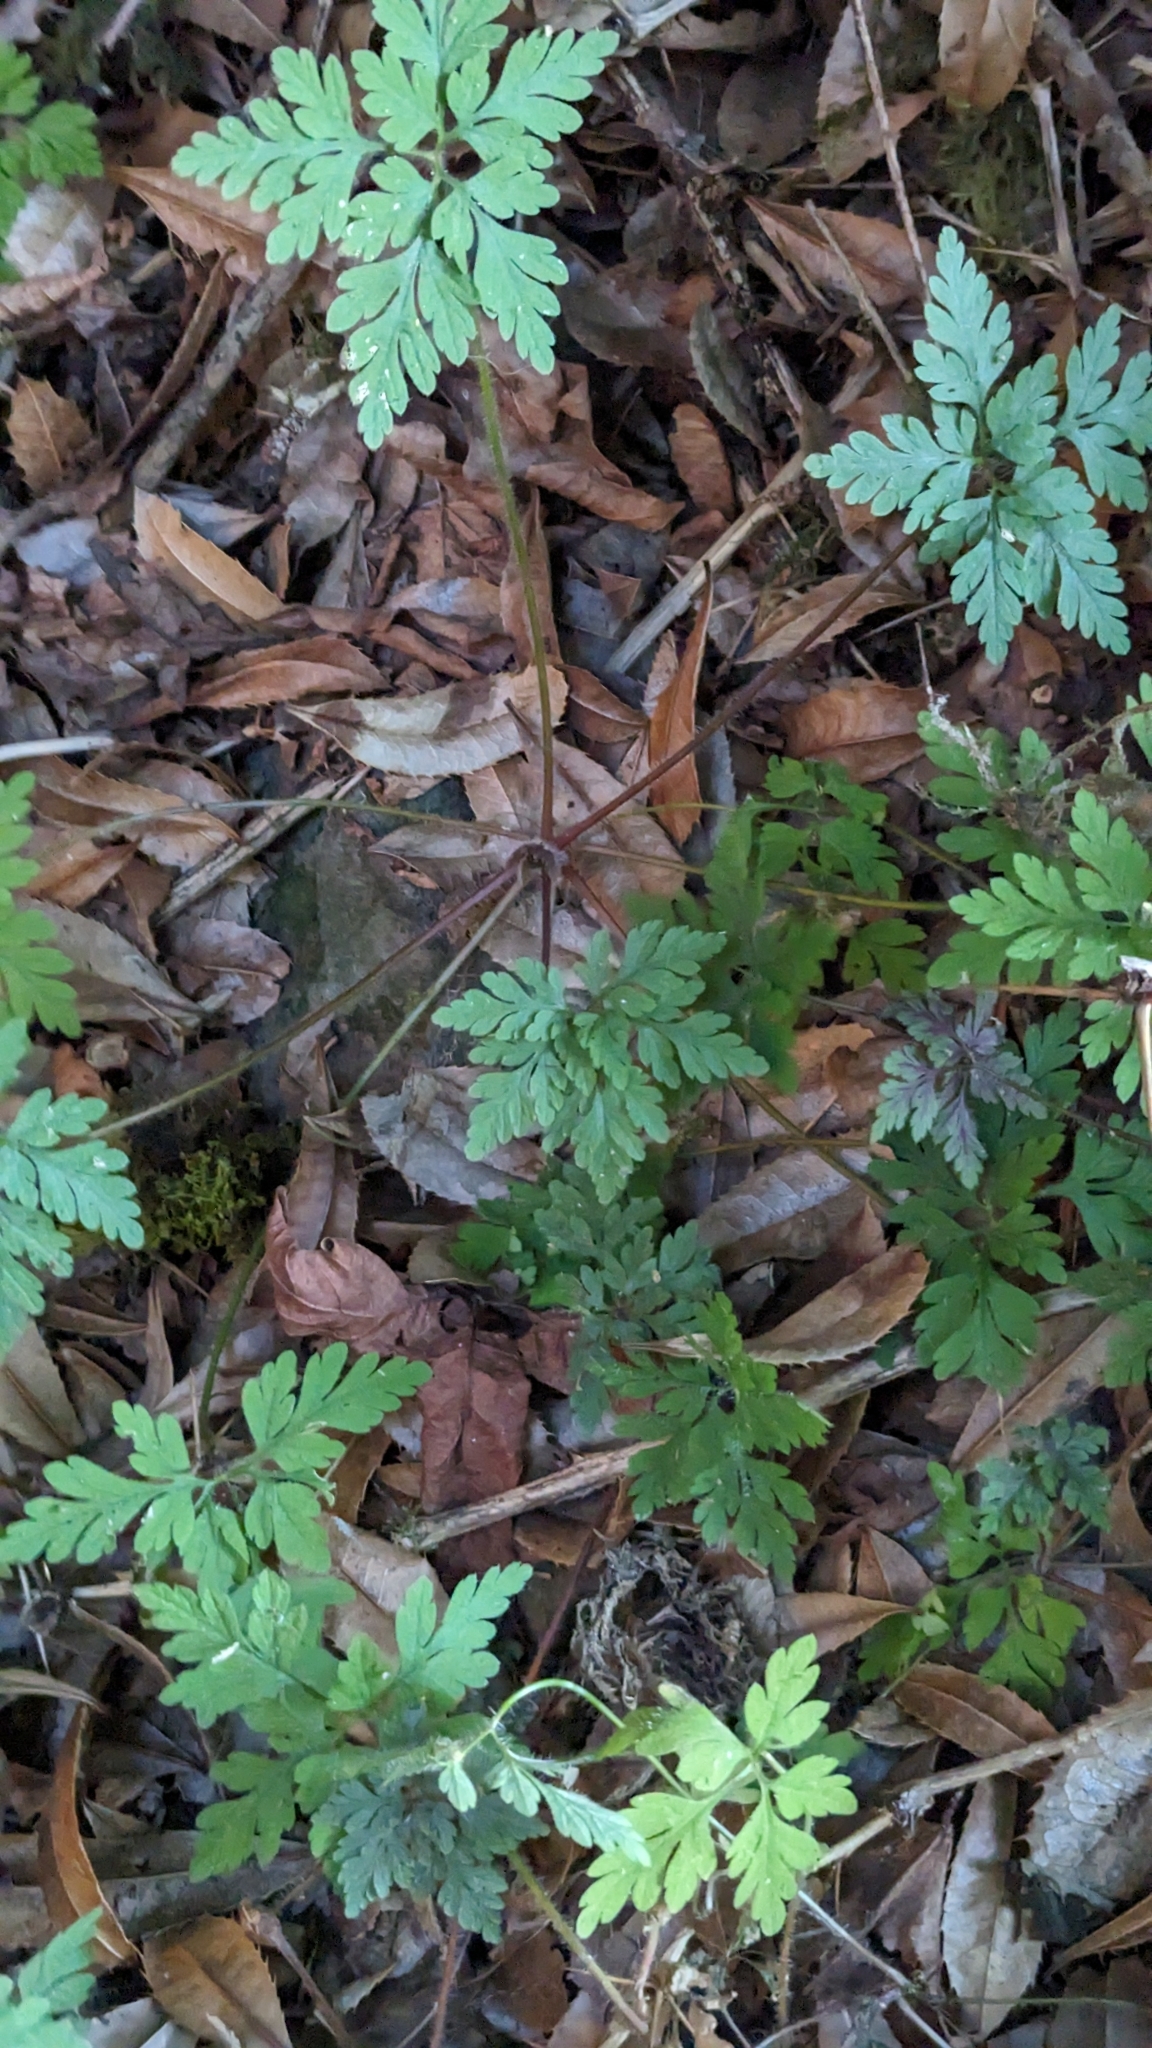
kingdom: Plantae
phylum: Tracheophyta
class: Magnoliopsida
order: Geraniales
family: Geraniaceae
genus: Geranium
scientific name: Geranium robertianum
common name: Herb-robert
